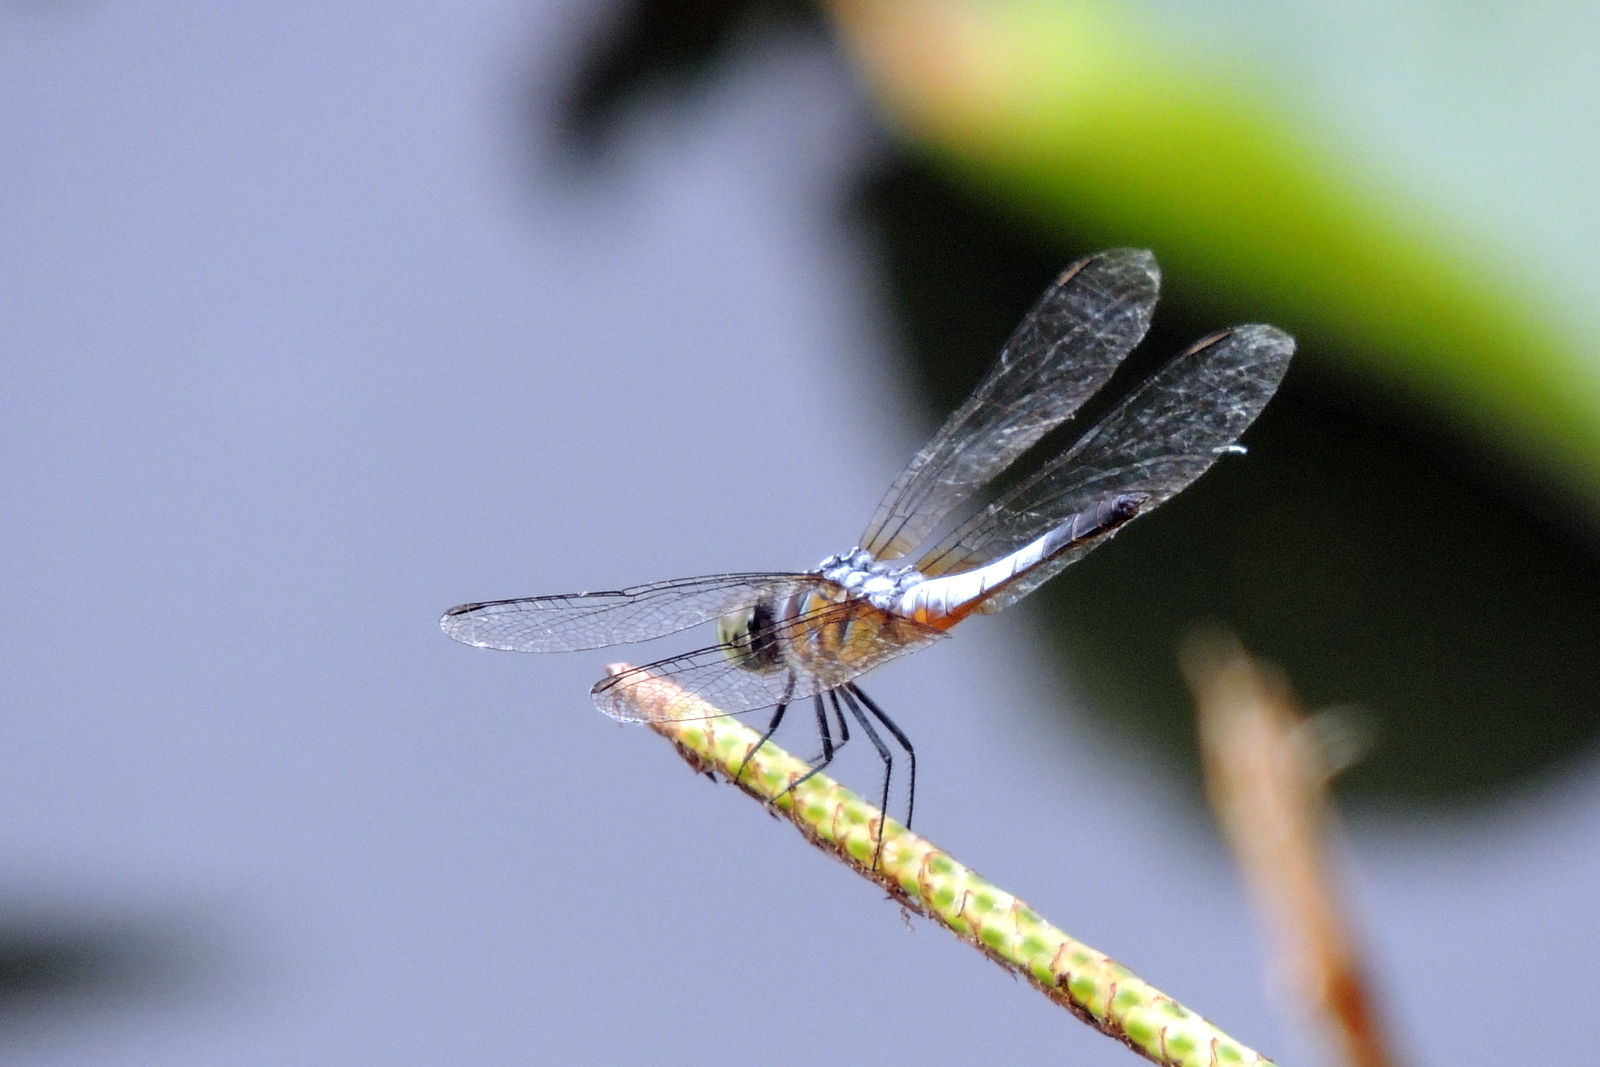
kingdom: Animalia
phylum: Arthropoda
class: Insecta
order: Odonata
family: Libellulidae
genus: Brachydiplax
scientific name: Brachydiplax chalybea
